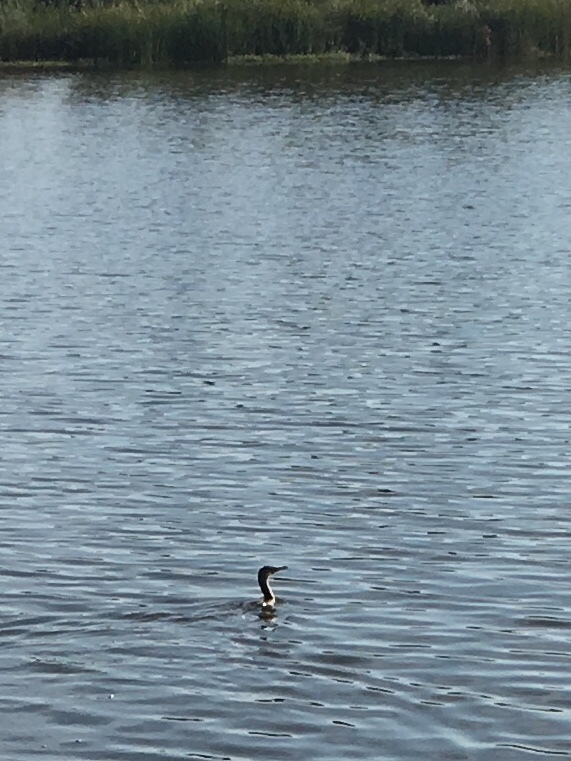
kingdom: Animalia
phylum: Chordata
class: Aves
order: Suliformes
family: Phalacrocoracidae
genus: Phalacrocorax
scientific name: Phalacrocorax auritus
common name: Double-crested cormorant
